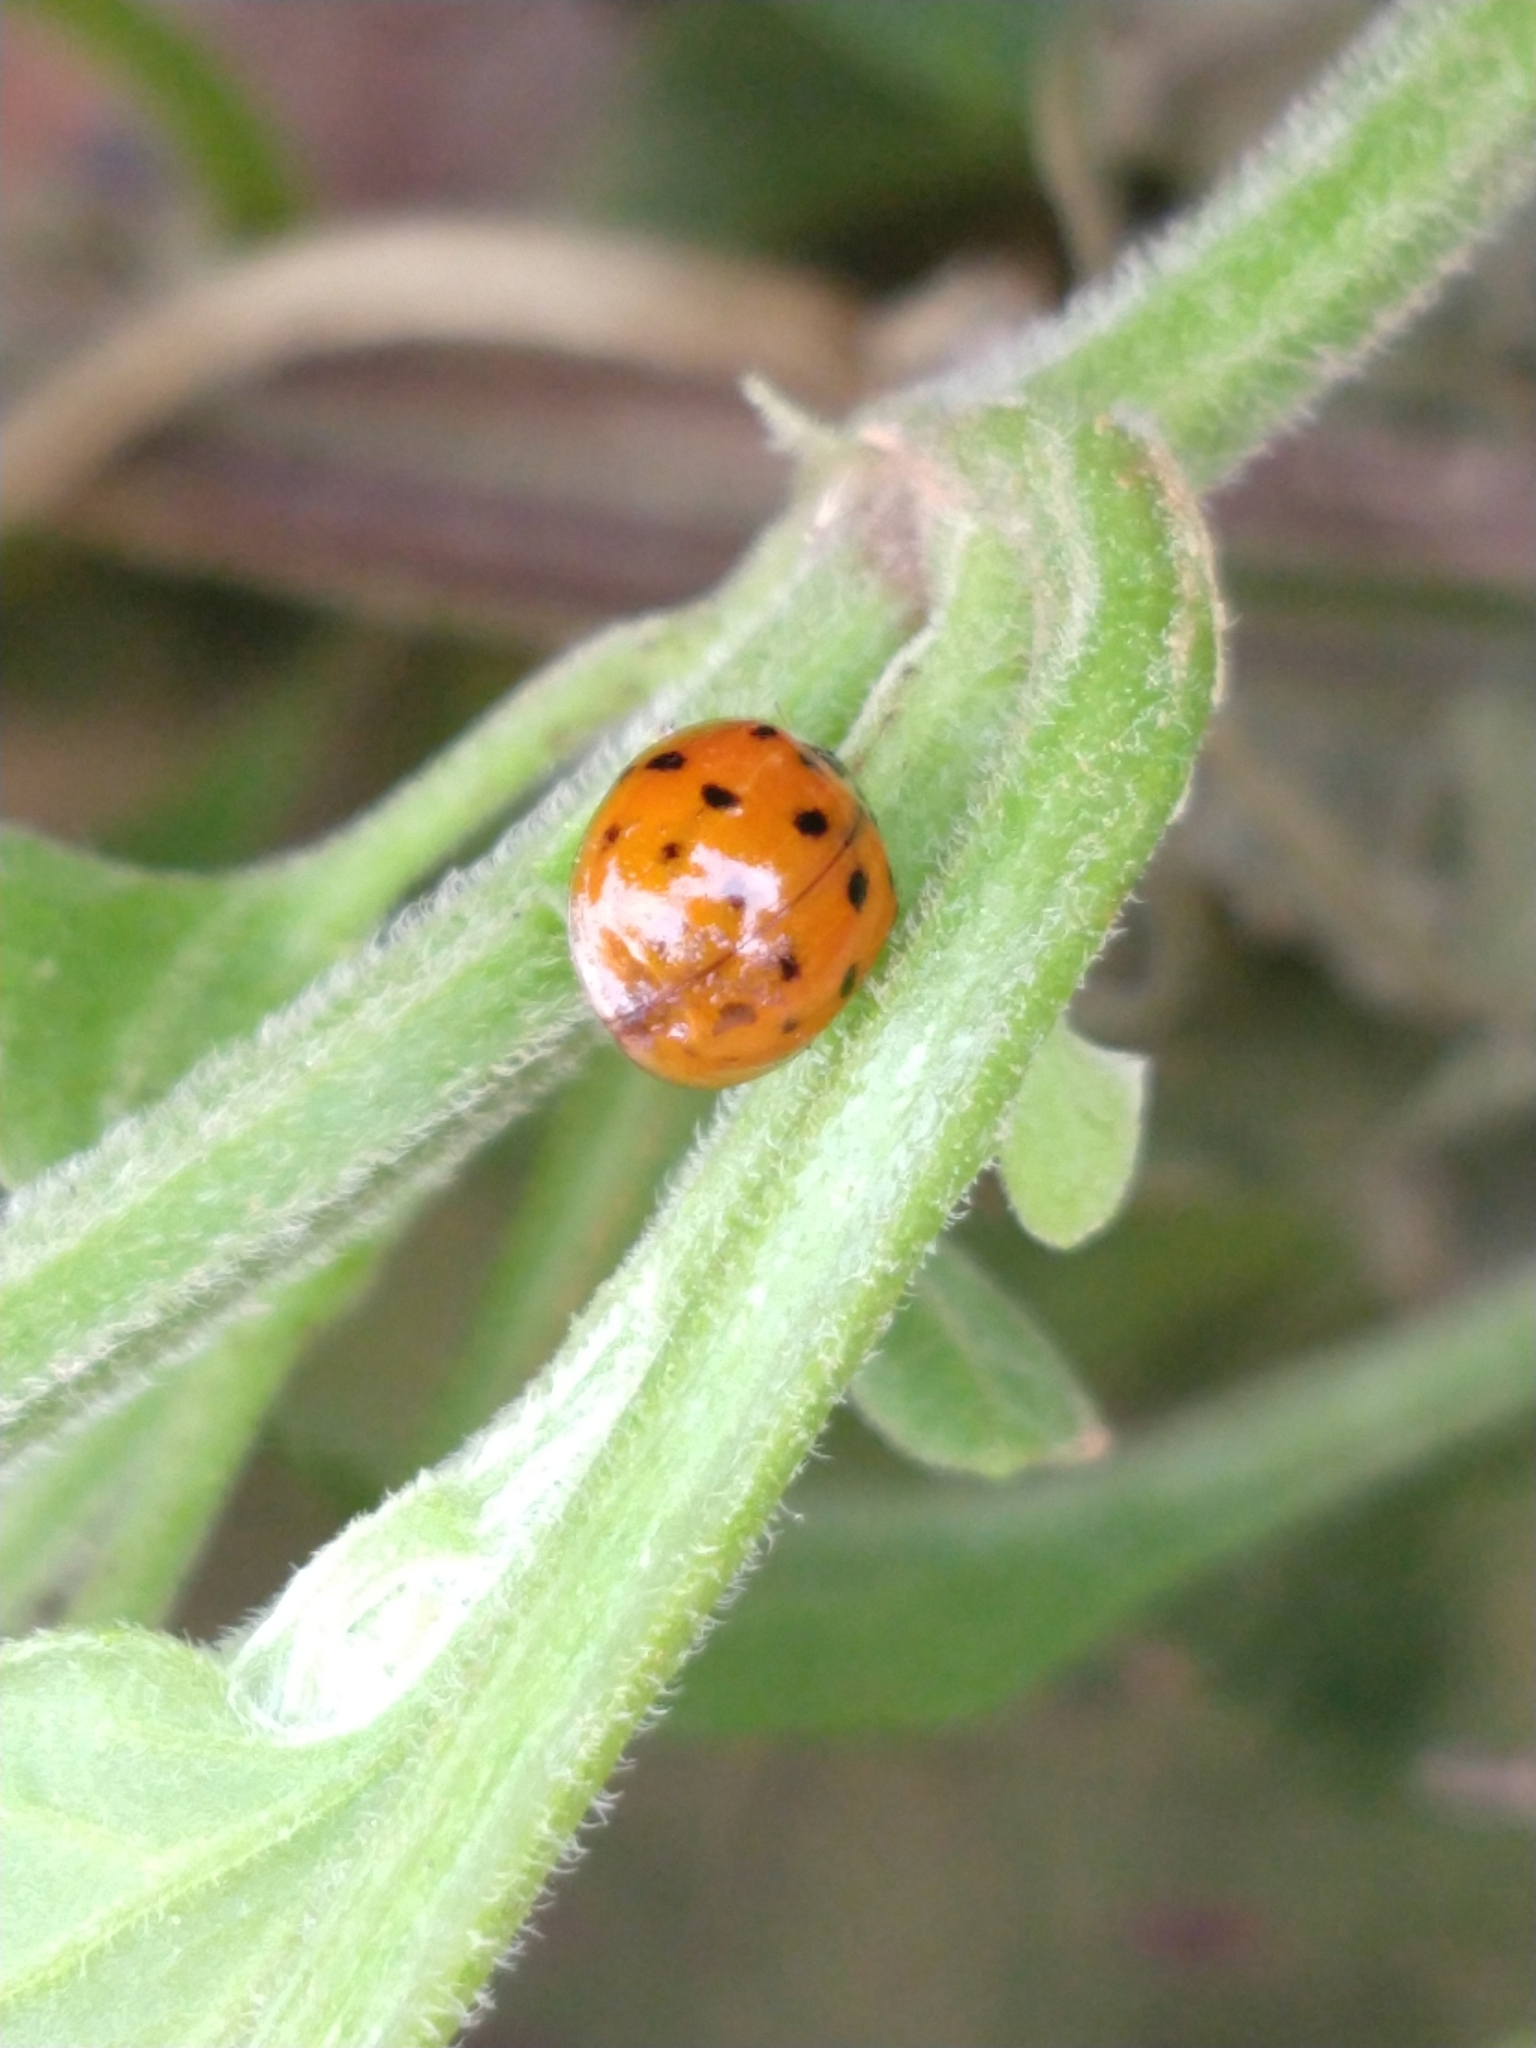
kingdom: Animalia
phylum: Arthropoda
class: Insecta
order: Coleoptera
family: Coccinellidae
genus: Harmonia
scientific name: Harmonia axyridis
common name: Harlequin ladybird
